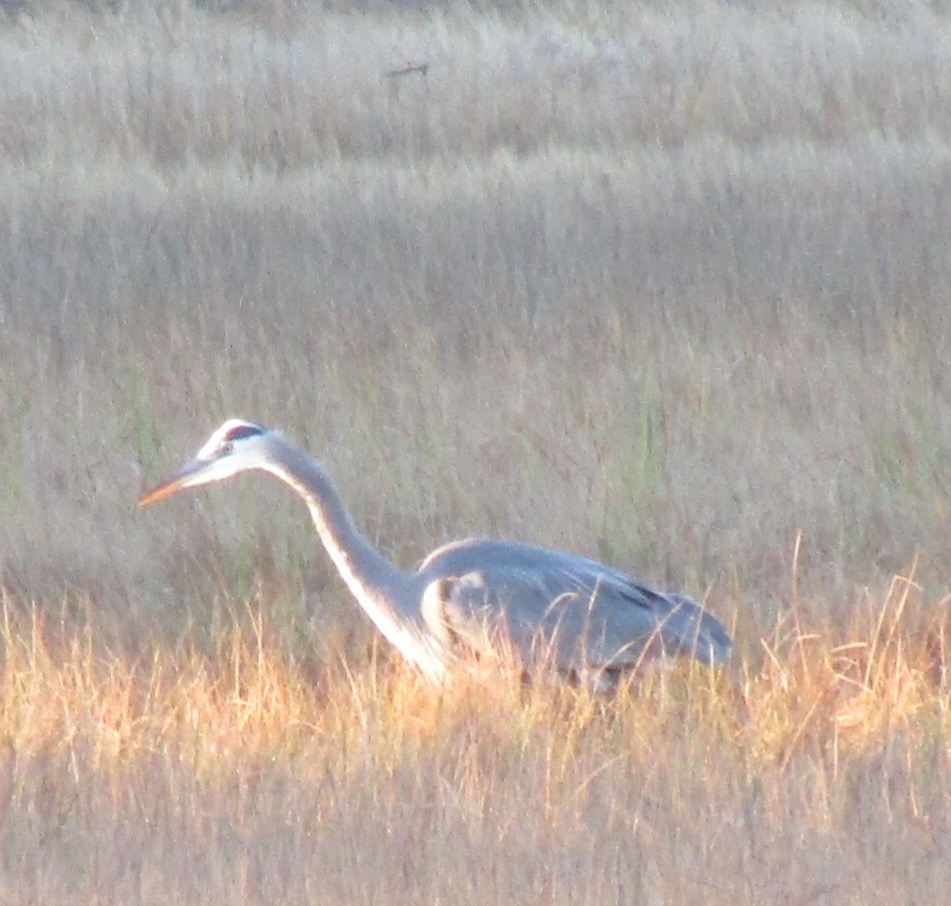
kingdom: Animalia
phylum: Chordata
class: Aves
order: Pelecaniformes
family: Ardeidae
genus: Ardea
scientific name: Ardea herodias
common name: Great blue heron
